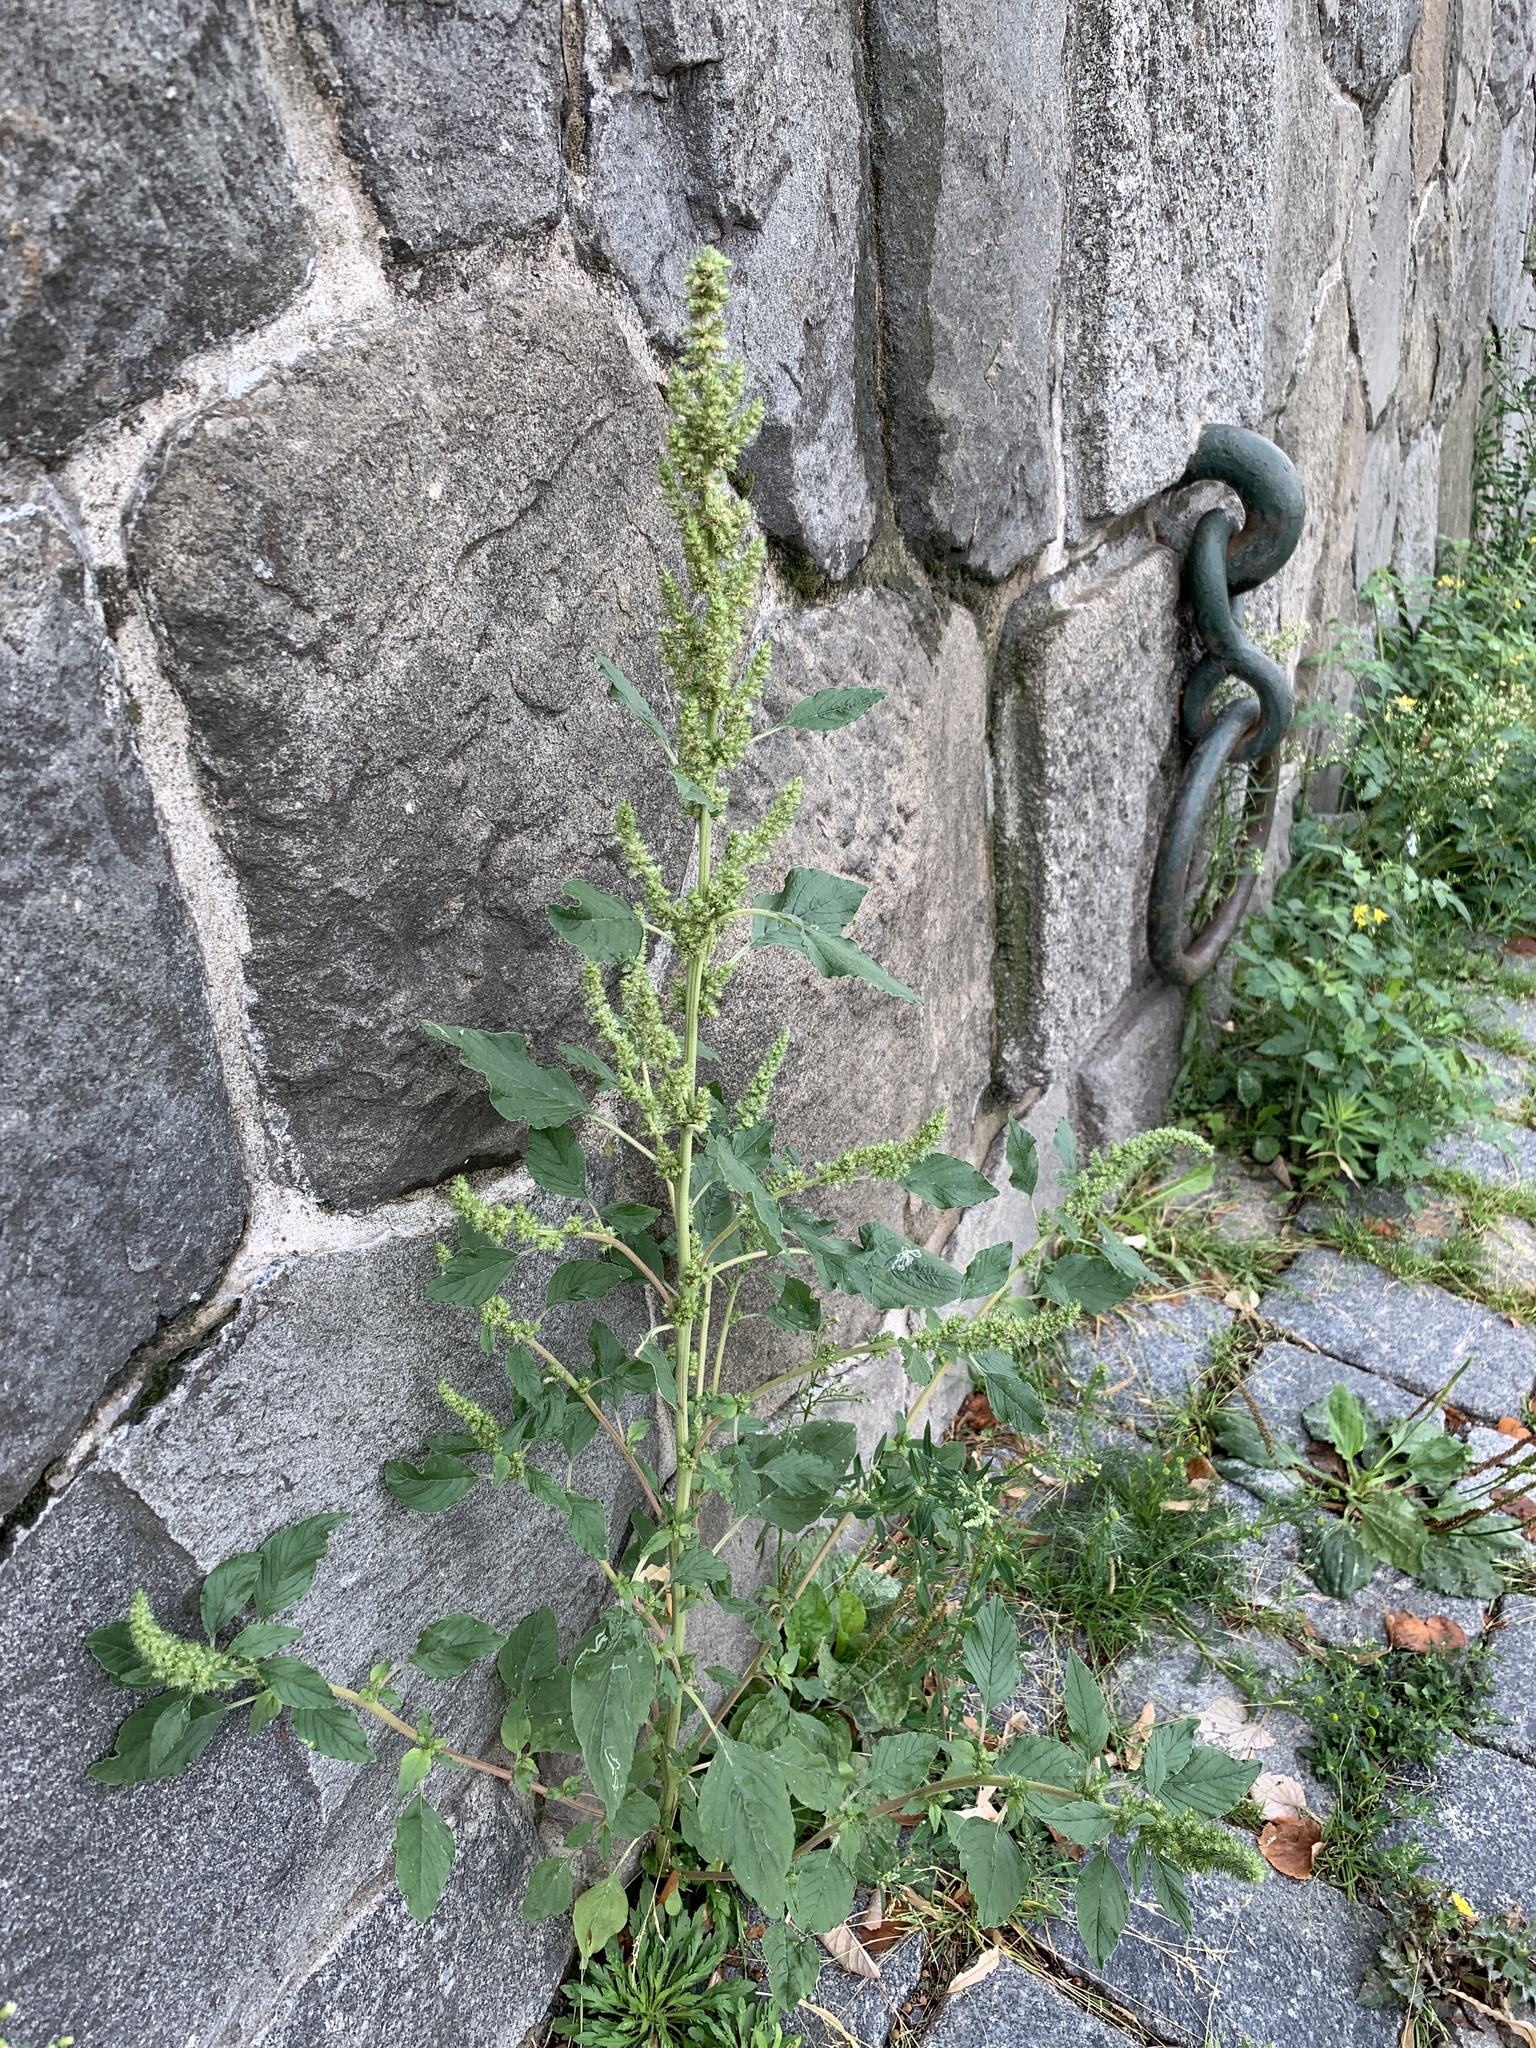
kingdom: Plantae
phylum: Tracheophyta
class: Magnoliopsida
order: Caryophyllales
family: Amaranthaceae
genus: Amaranthus
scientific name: Amaranthus retroflexus
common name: Redroot amaranth
